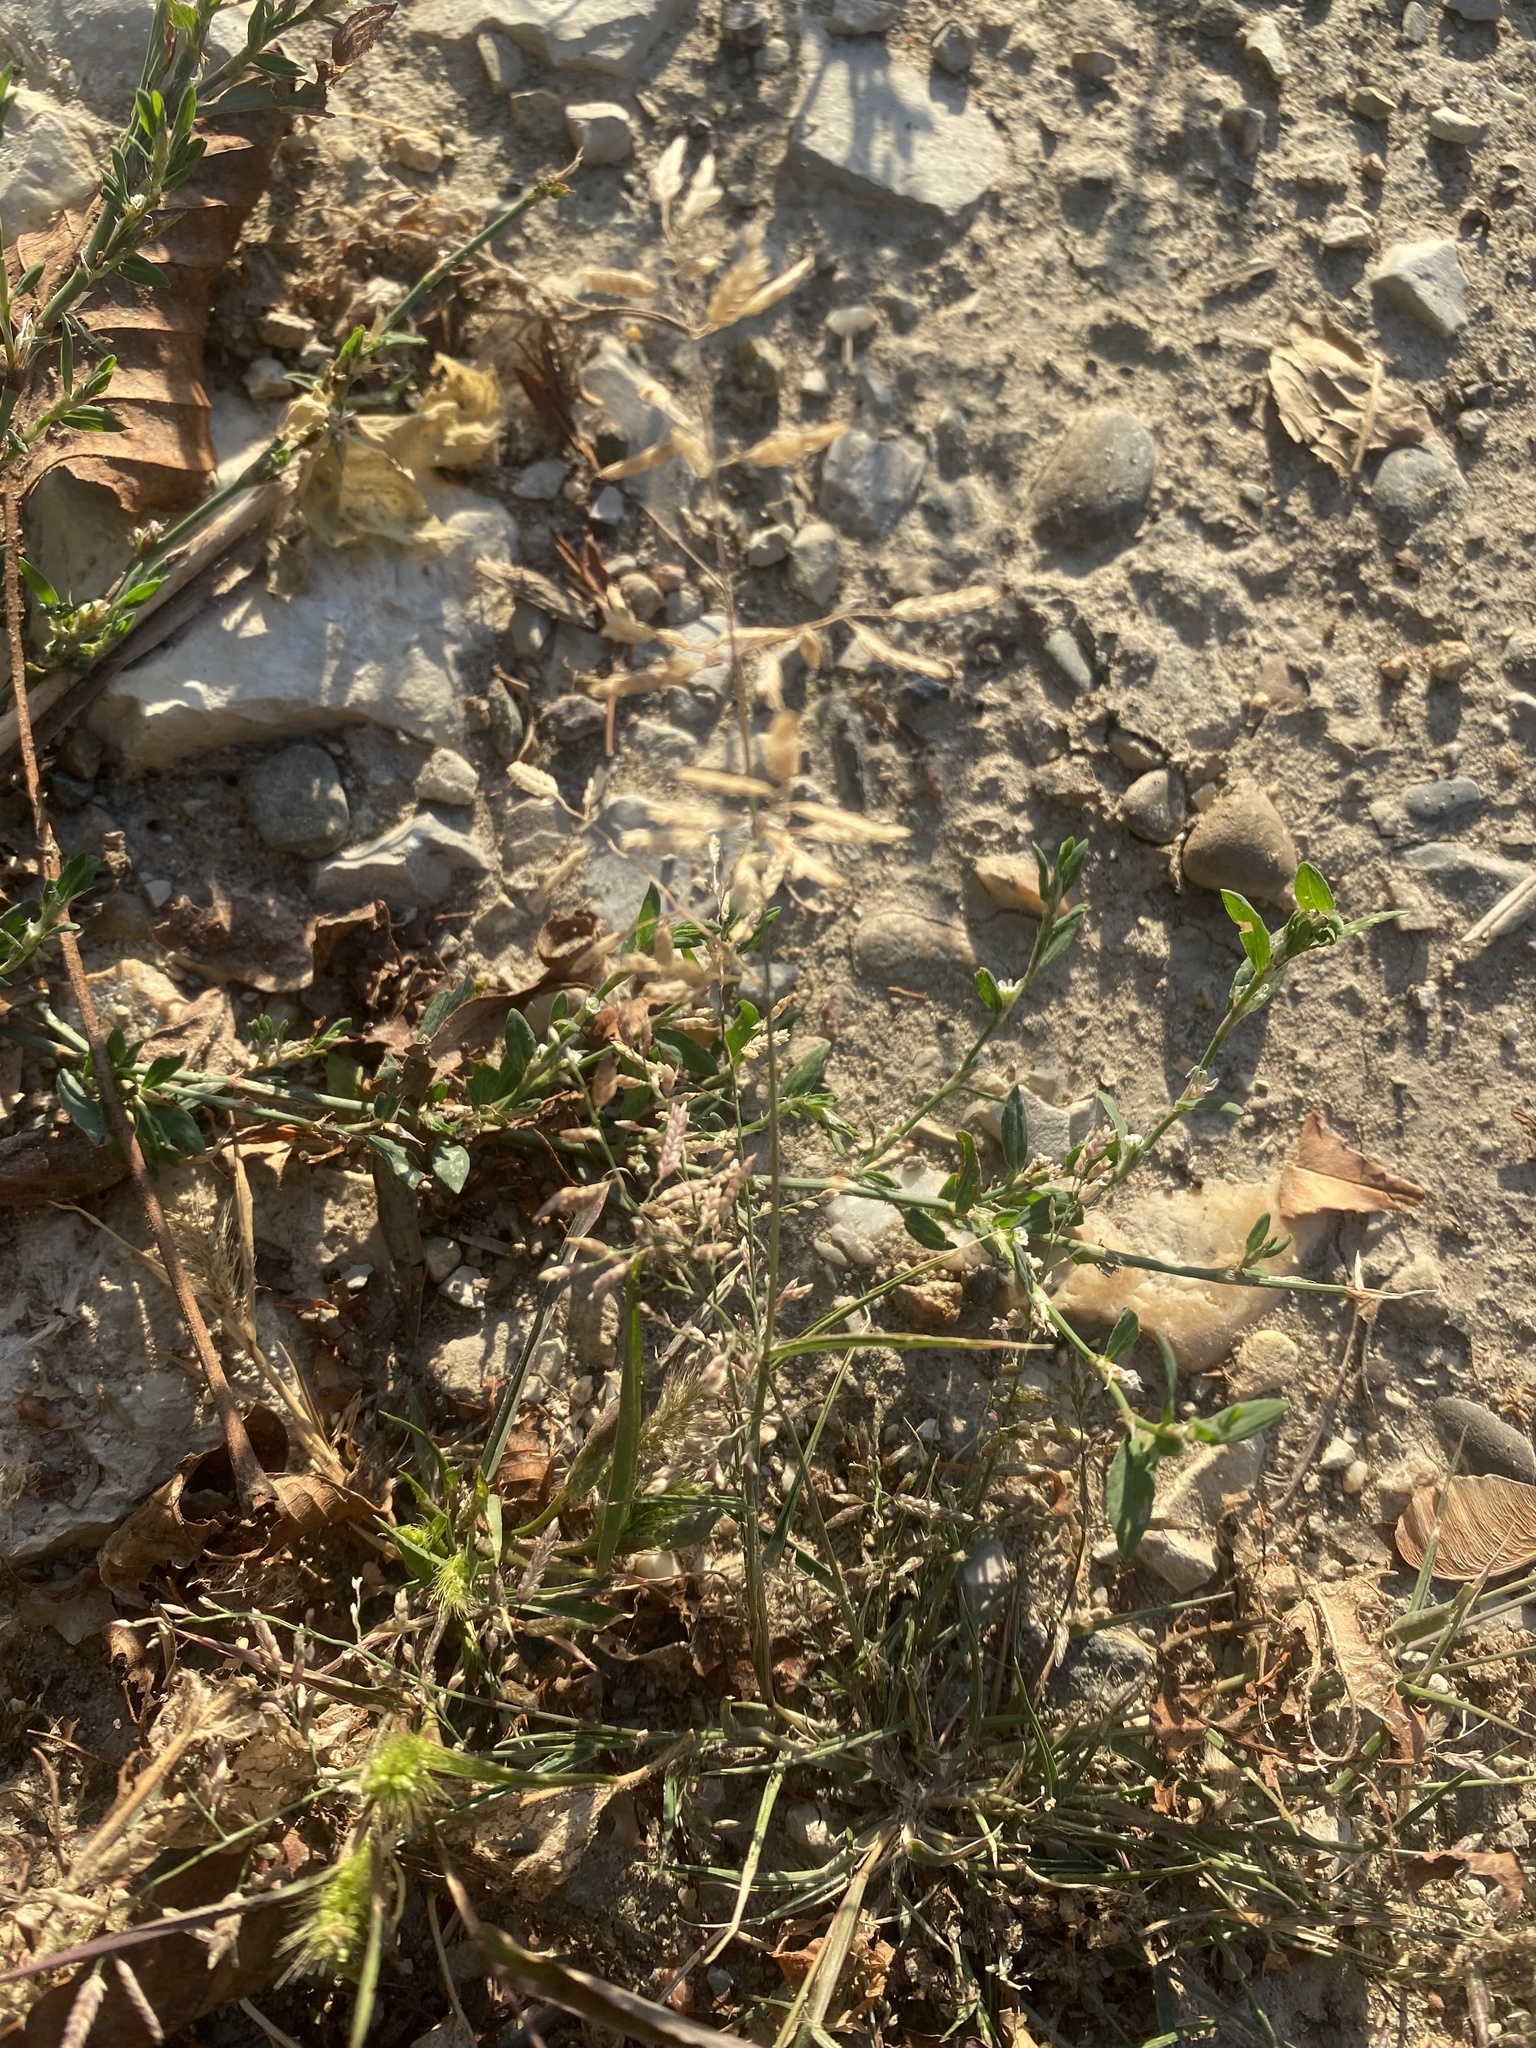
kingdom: Plantae
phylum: Tracheophyta
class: Liliopsida
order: Poales
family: Poaceae
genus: Eragrostis
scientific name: Eragrostis minor
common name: Small love-grass
